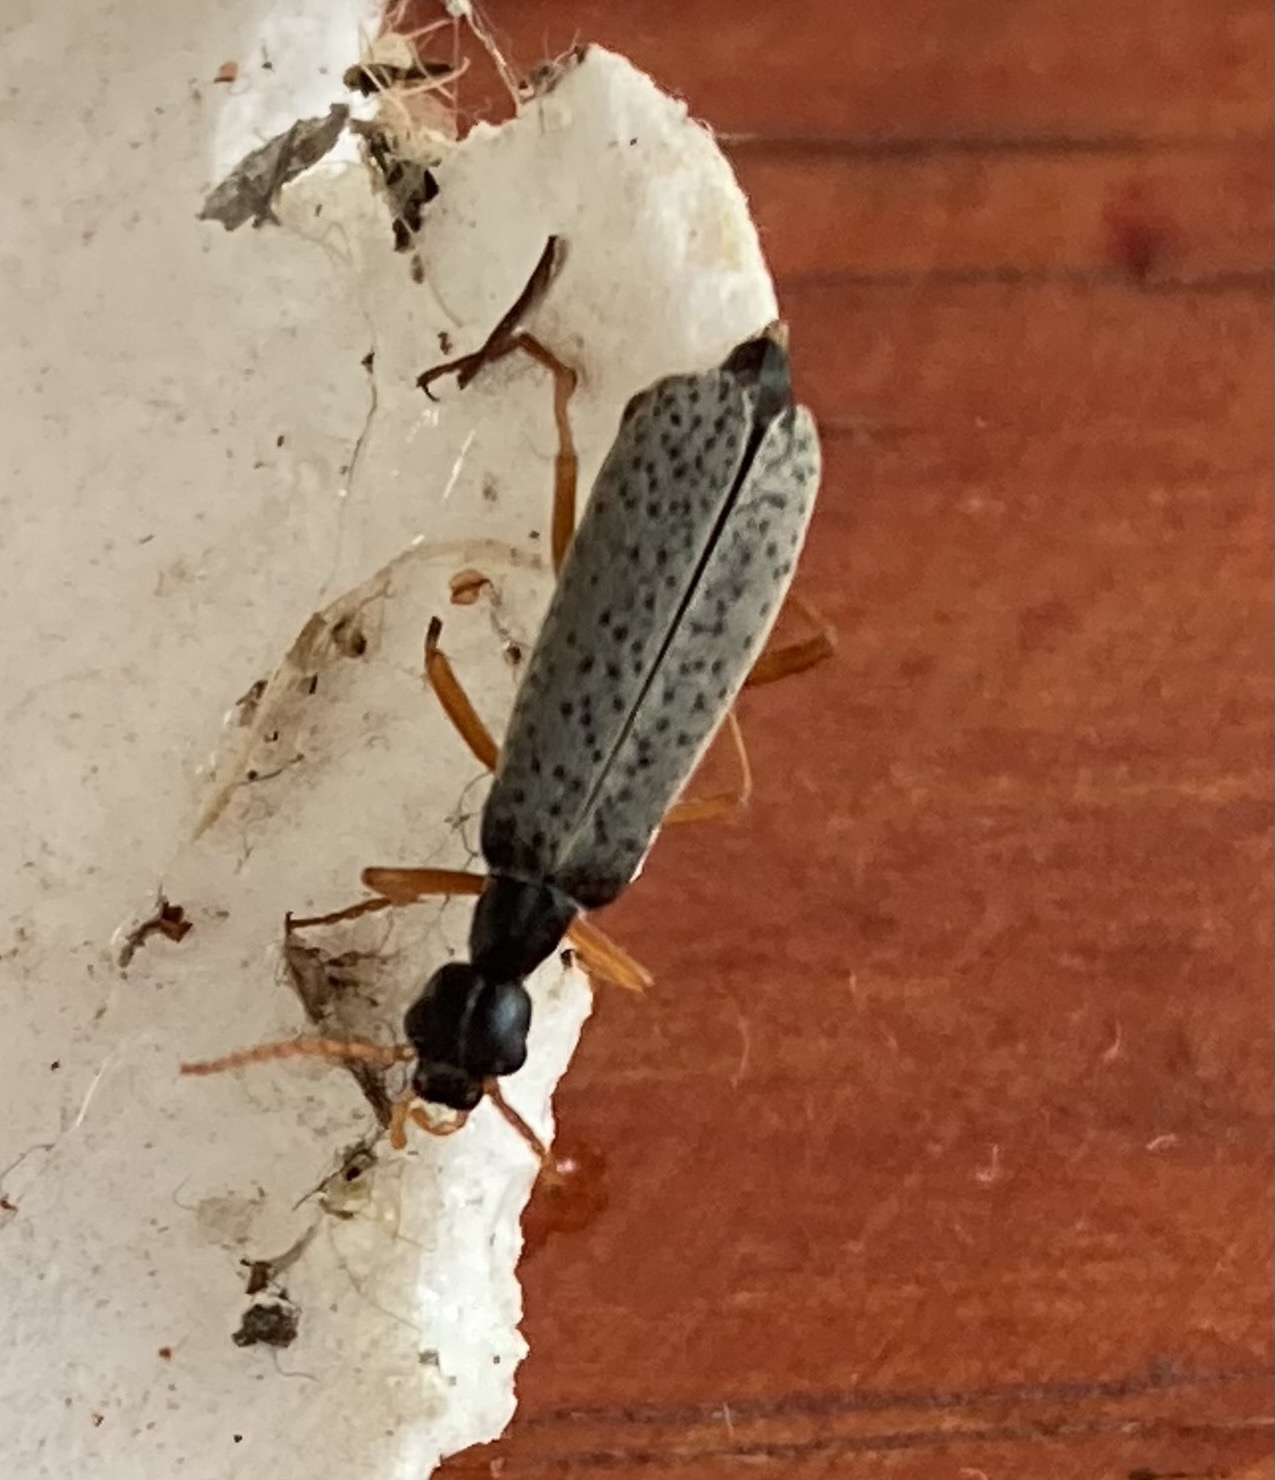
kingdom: Animalia
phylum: Arthropoda
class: Insecta
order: Coleoptera
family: Meloidae
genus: Epicauta
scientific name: Epicauta
